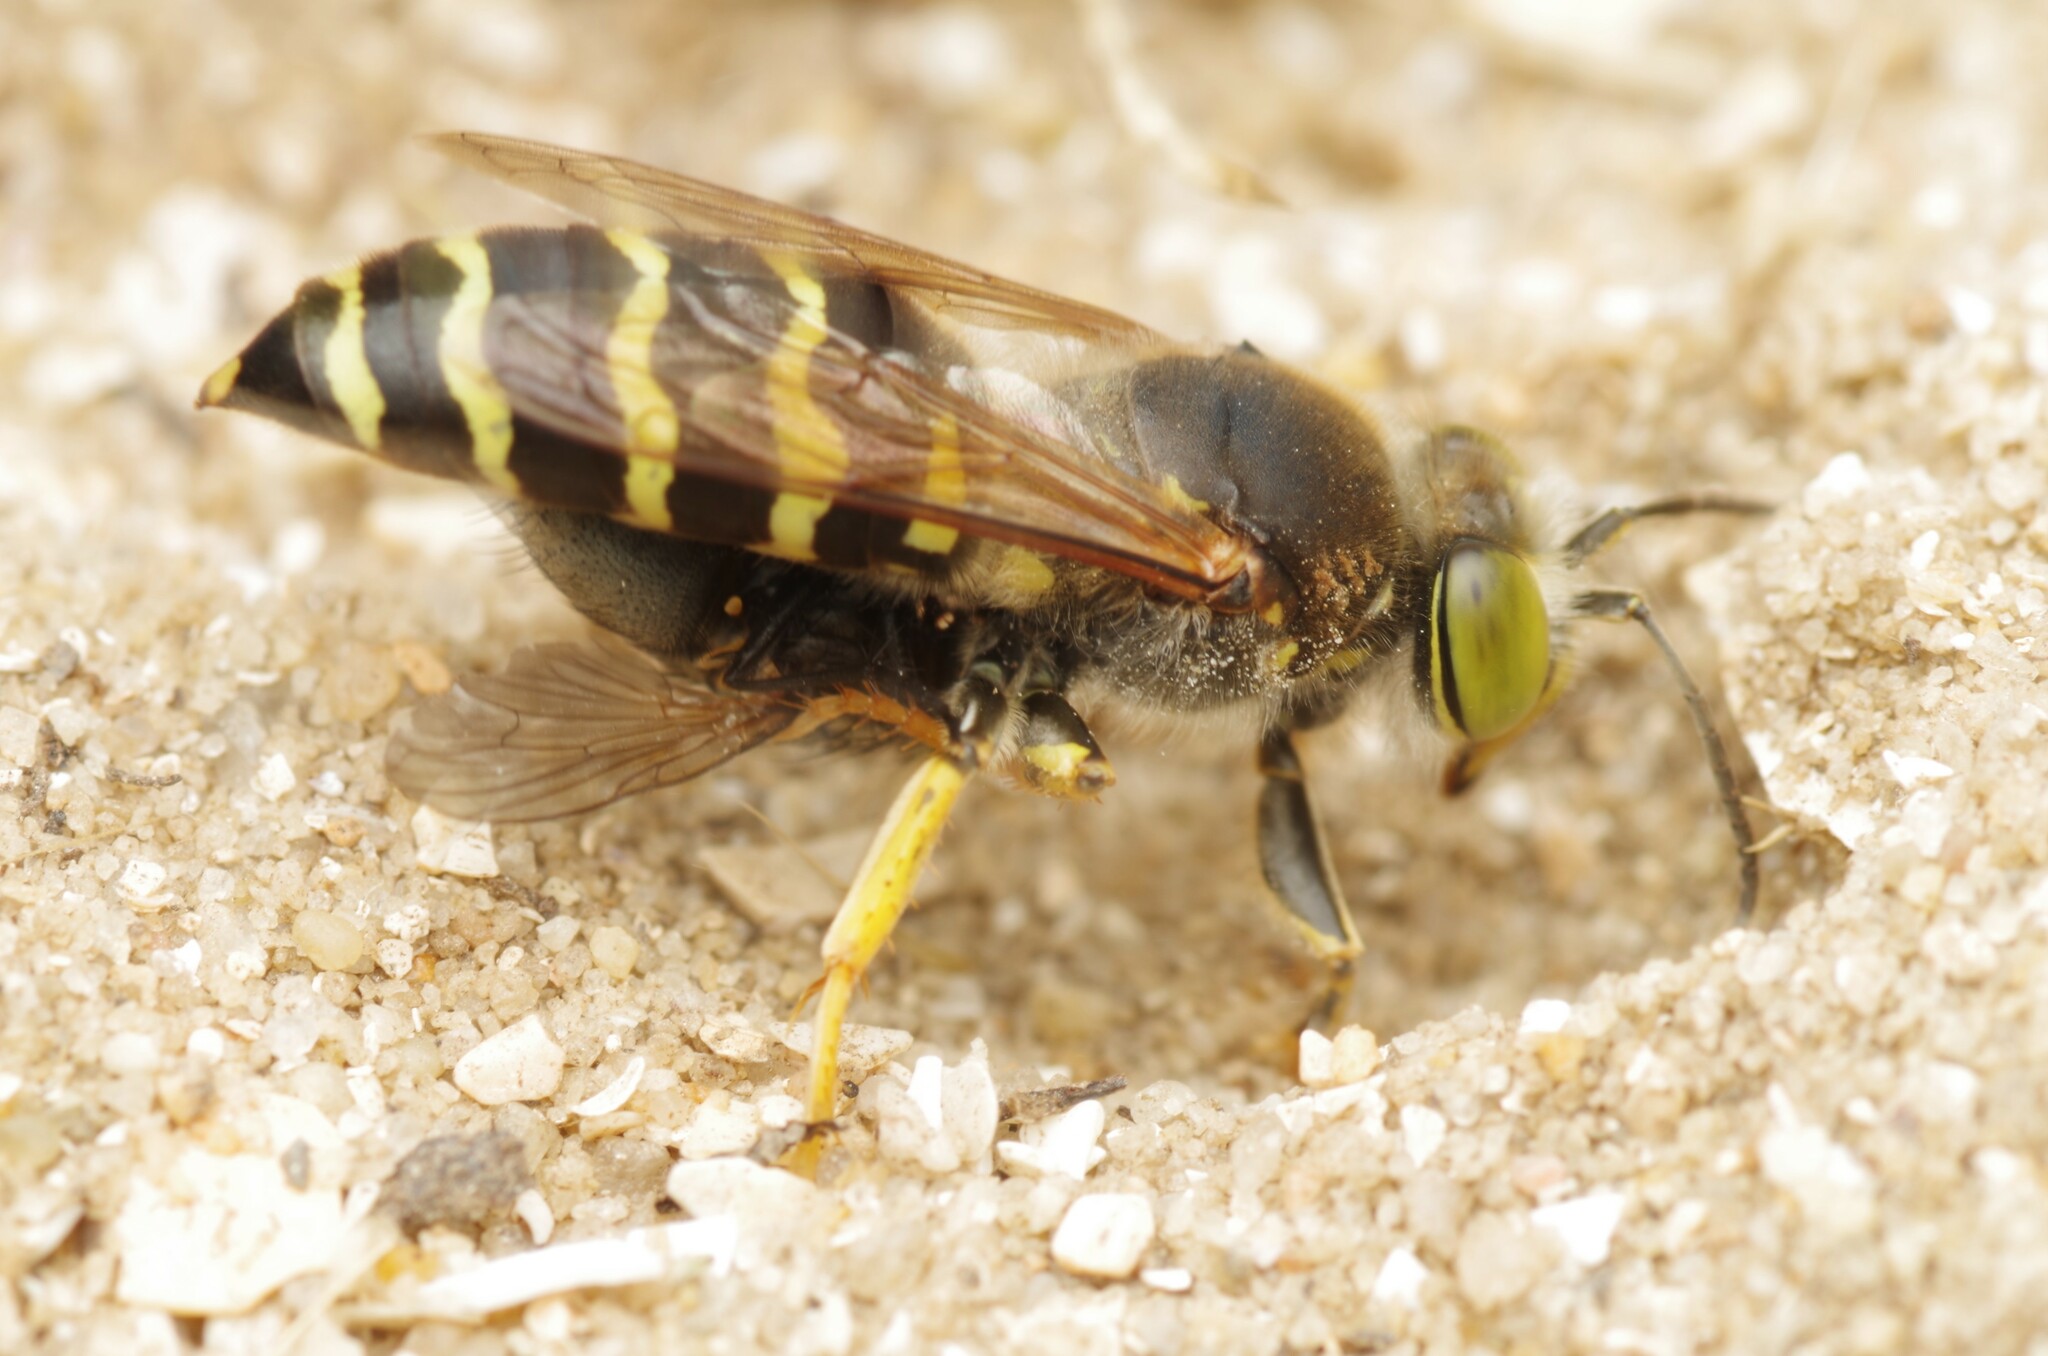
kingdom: Animalia
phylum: Arthropoda
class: Insecta
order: Hymenoptera
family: Crabronidae
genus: Bembix
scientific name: Bembix rostrata
